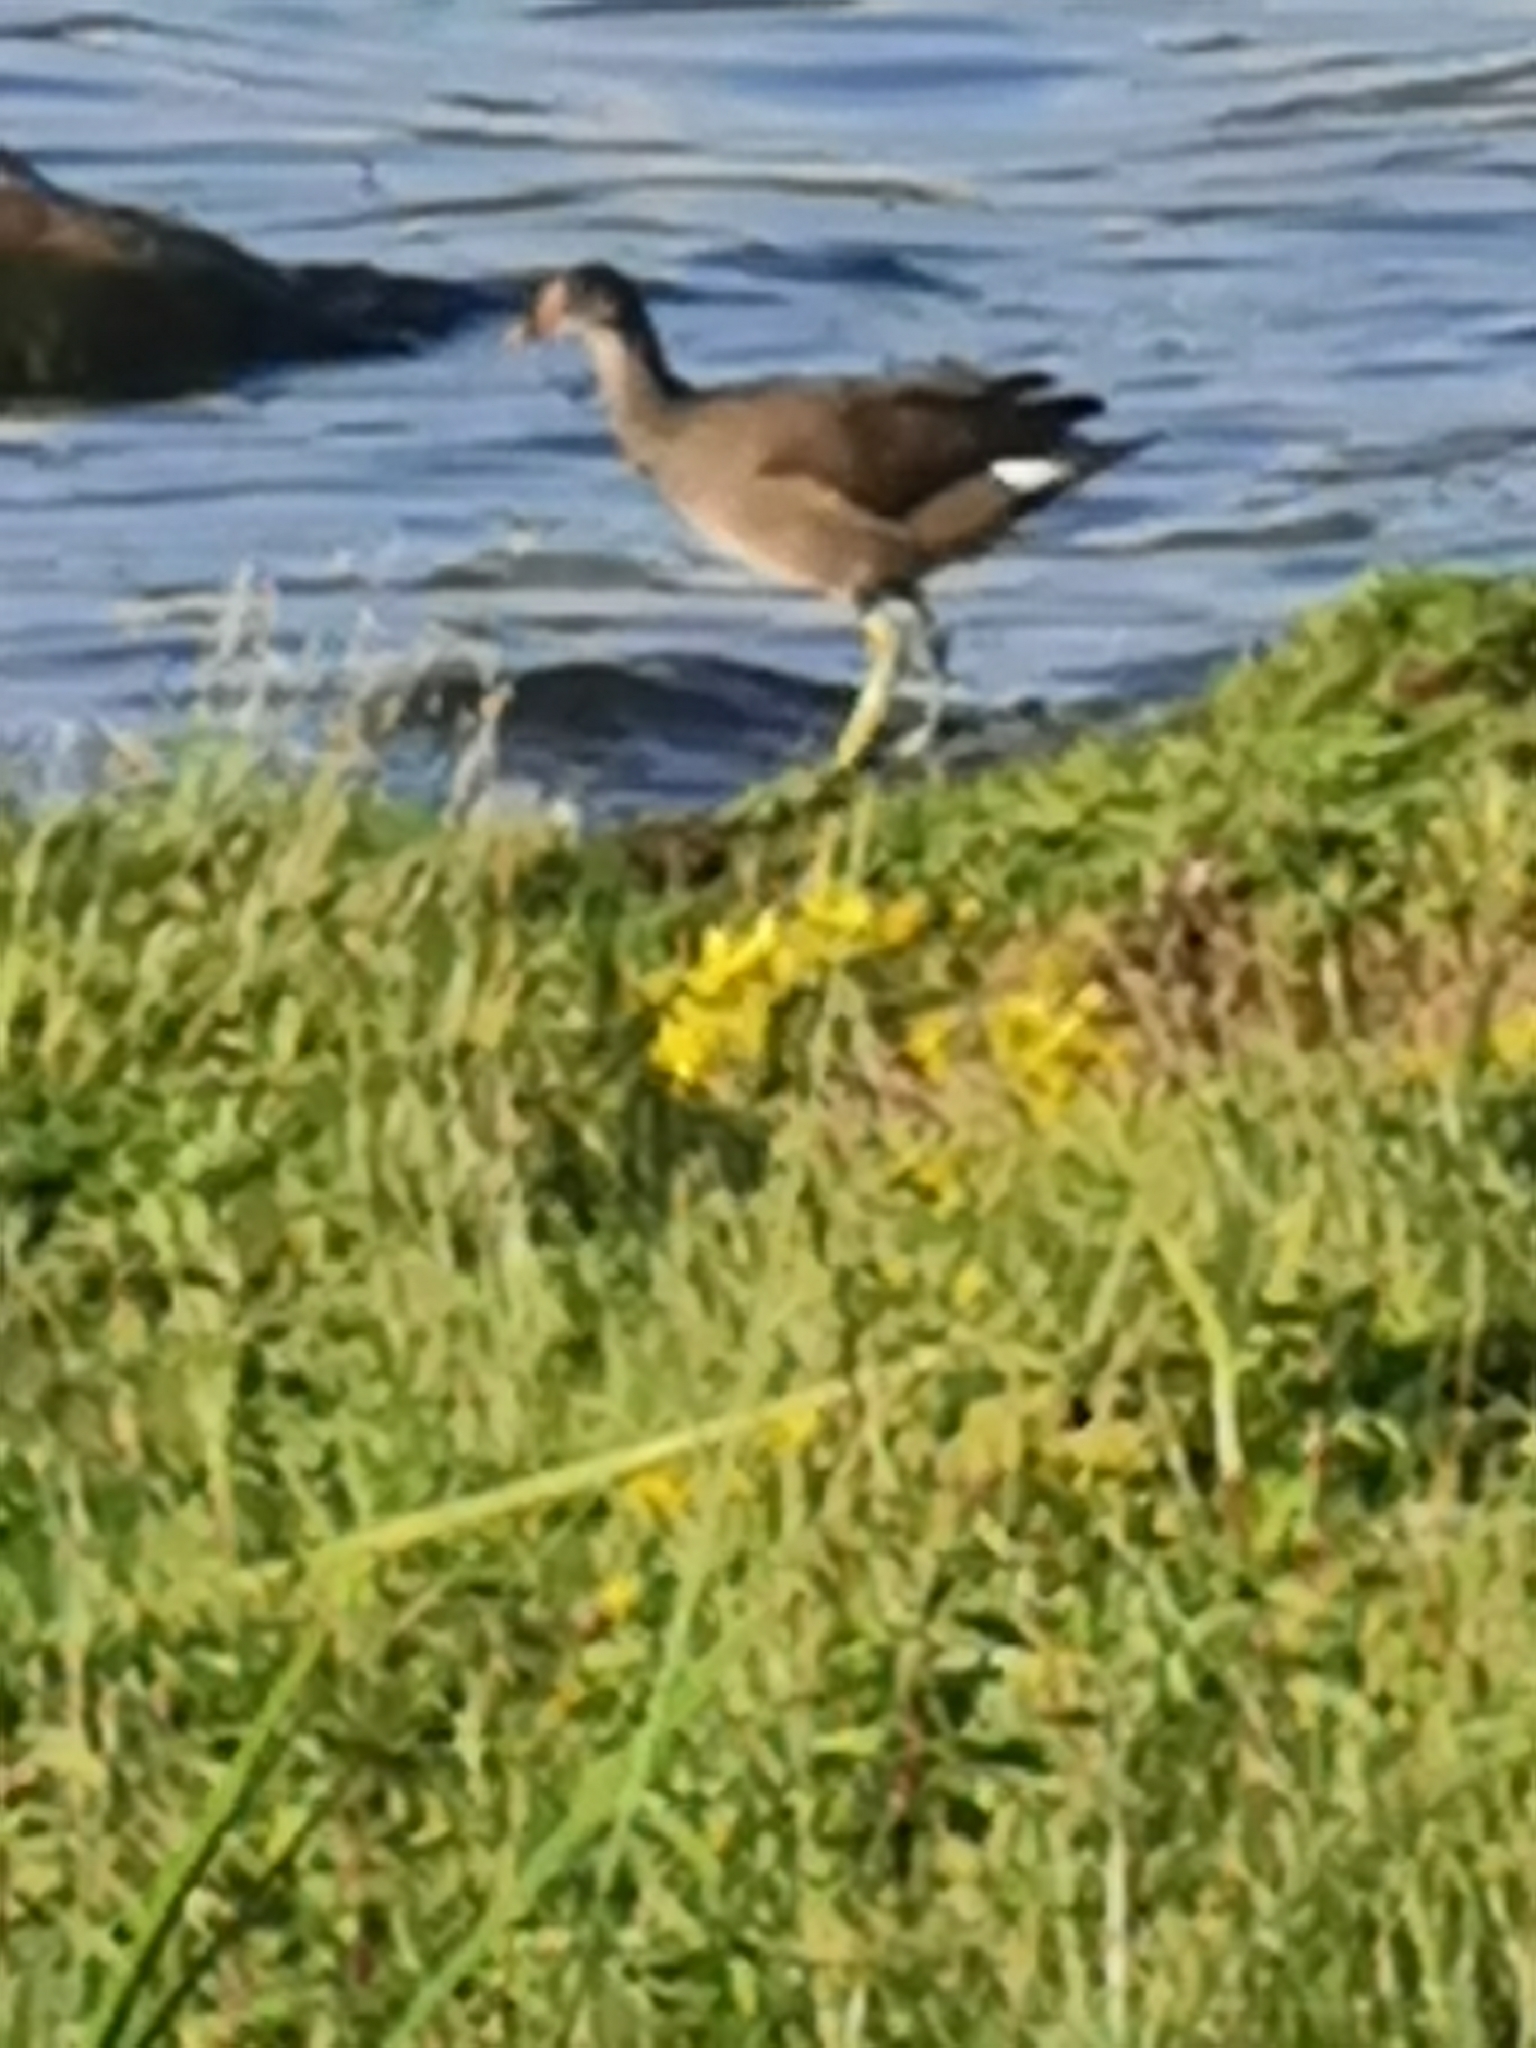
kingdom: Animalia
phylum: Chordata
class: Aves
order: Gruiformes
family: Rallidae
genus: Gallinula
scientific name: Gallinula chloropus
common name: Common moorhen
